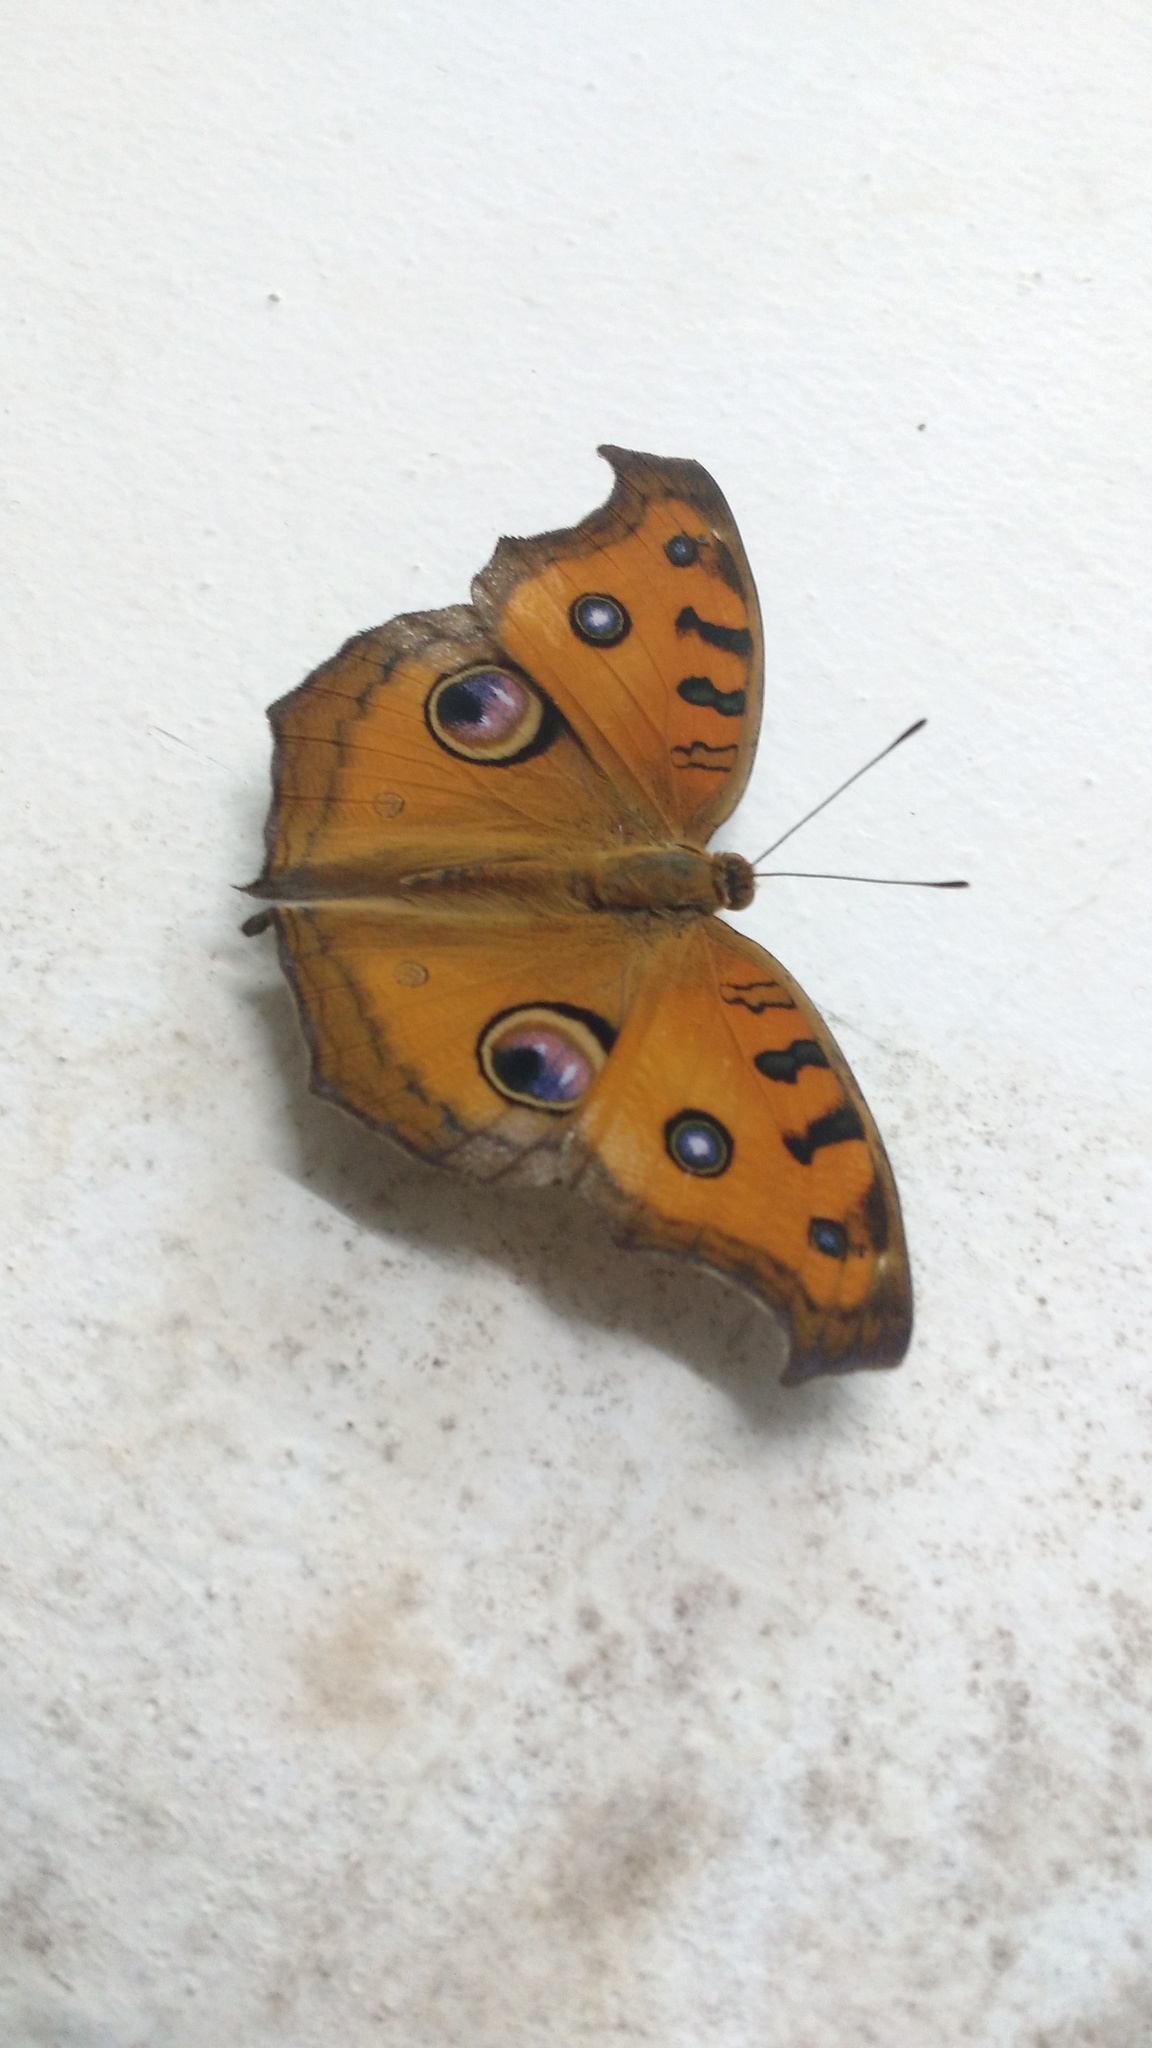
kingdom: Animalia
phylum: Arthropoda
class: Insecta
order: Lepidoptera
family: Nymphalidae
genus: Junonia
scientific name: Junonia almana
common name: Peacock pansy
